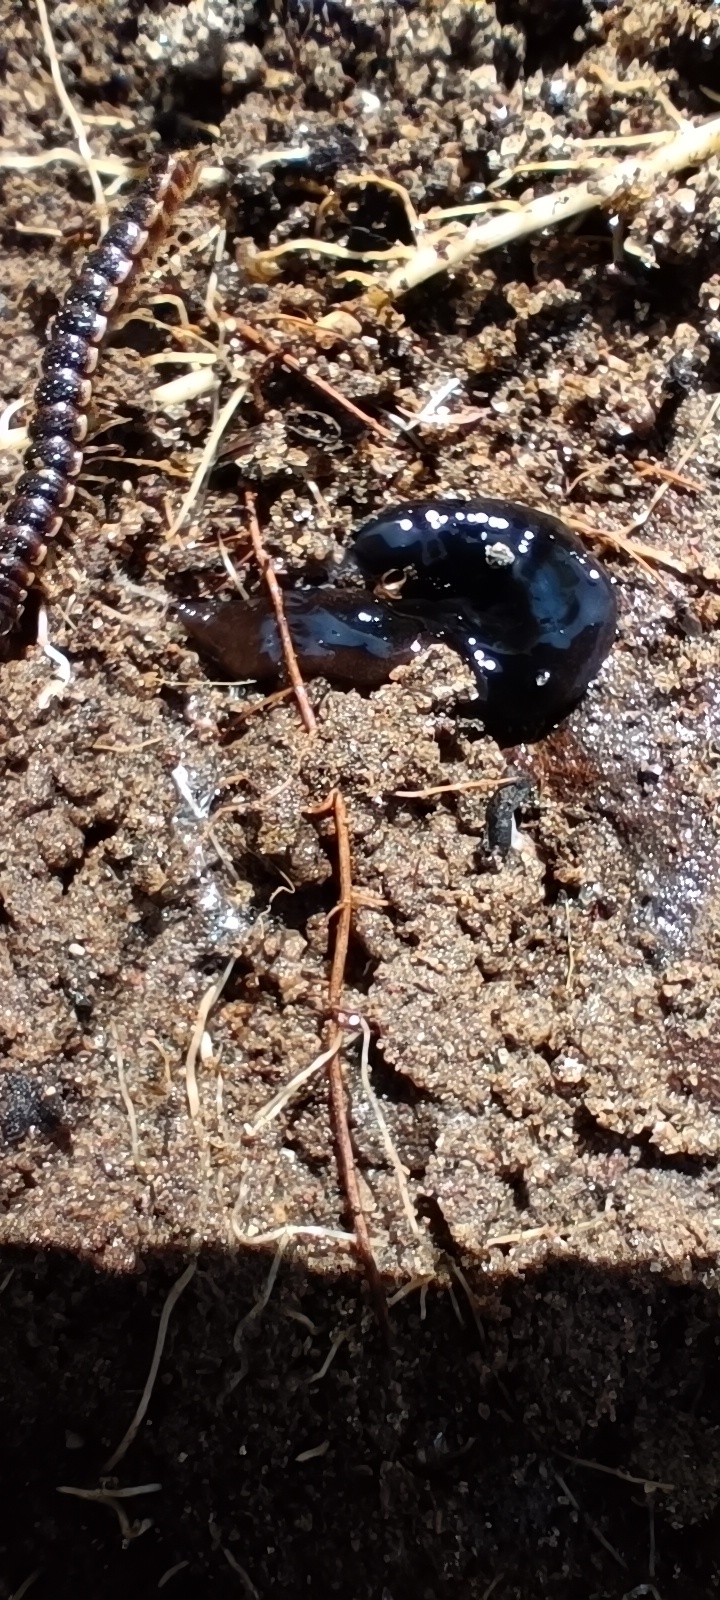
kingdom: Animalia
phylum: Arthropoda
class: Diplopoda
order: Polydesmida
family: Paradoxosomatidae
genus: Oxidus
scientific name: Oxidus gracilis
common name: Greenhouse millipede
